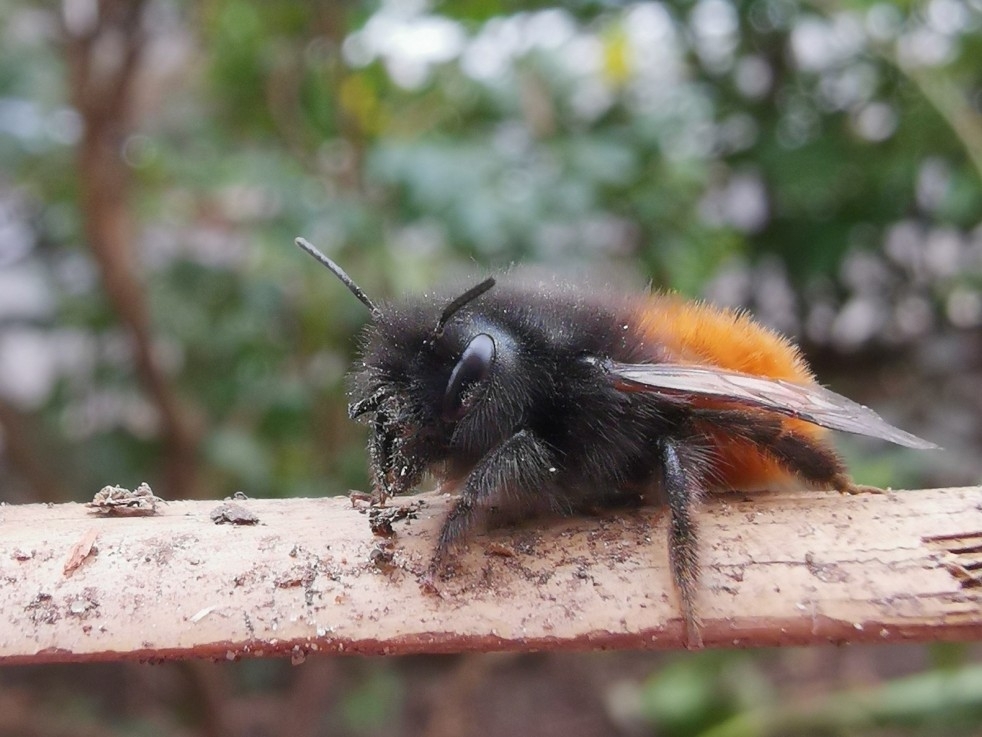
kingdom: Animalia
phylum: Arthropoda
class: Insecta
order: Hymenoptera
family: Megachilidae
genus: Osmia
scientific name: Osmia cornuta
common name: Mason bee
